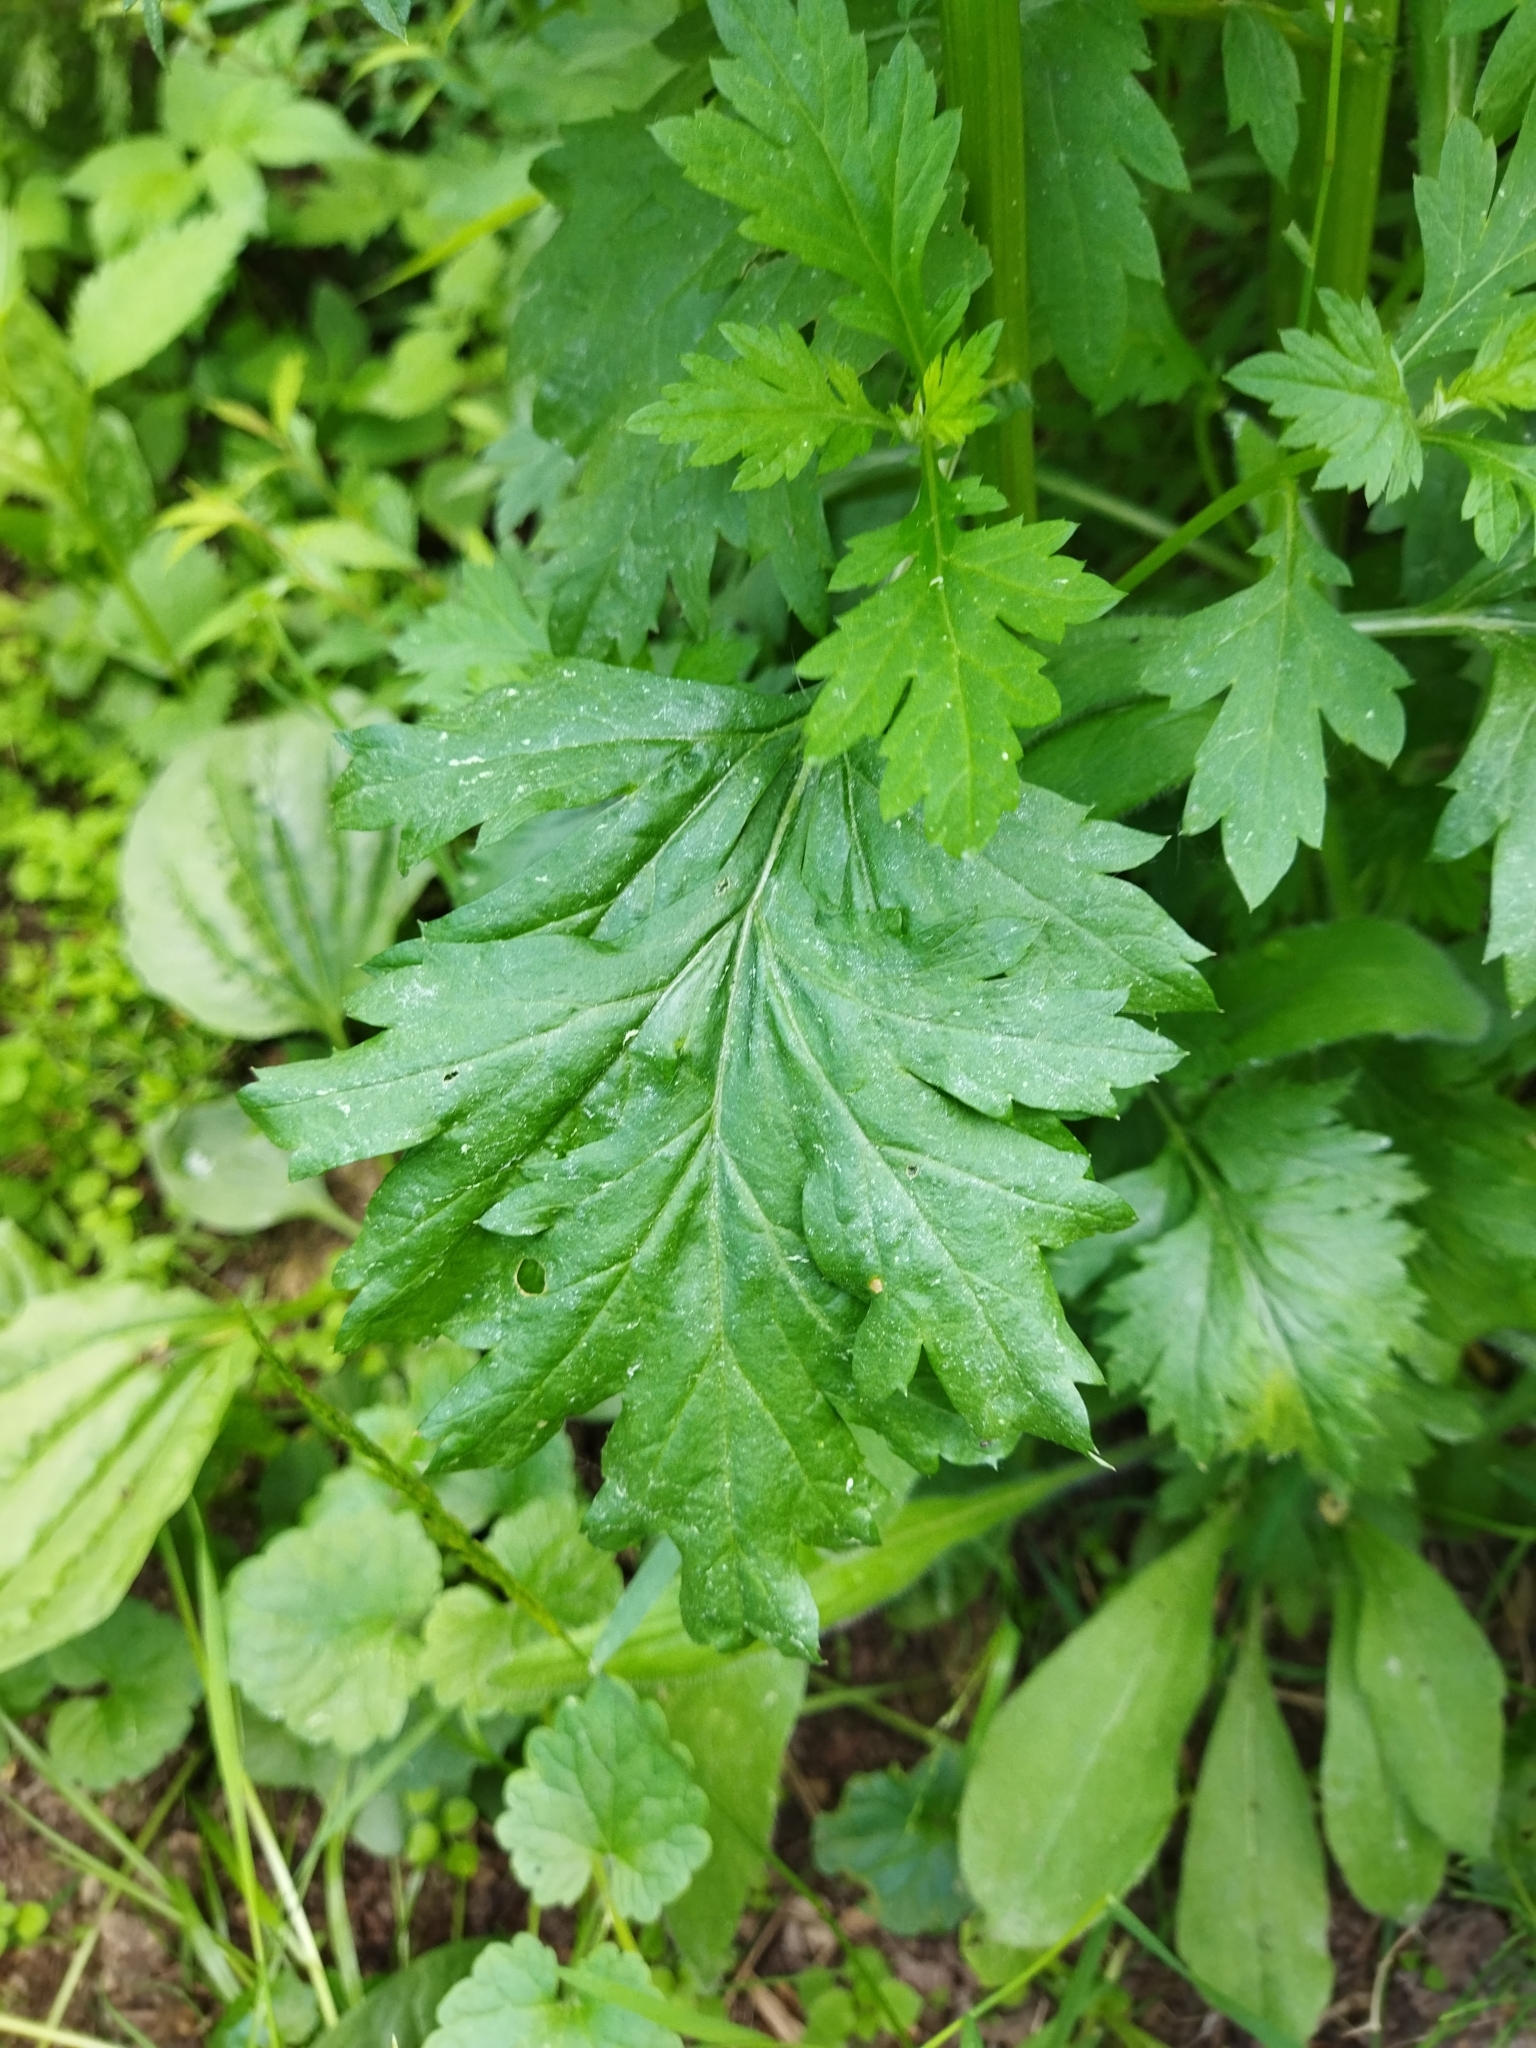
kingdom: Plantae
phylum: Tracheophyta
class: Magnoliopsida
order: Asterales
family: Asteraceae
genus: Artemisia
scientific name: Artemisia vulgaris
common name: Mugwort
